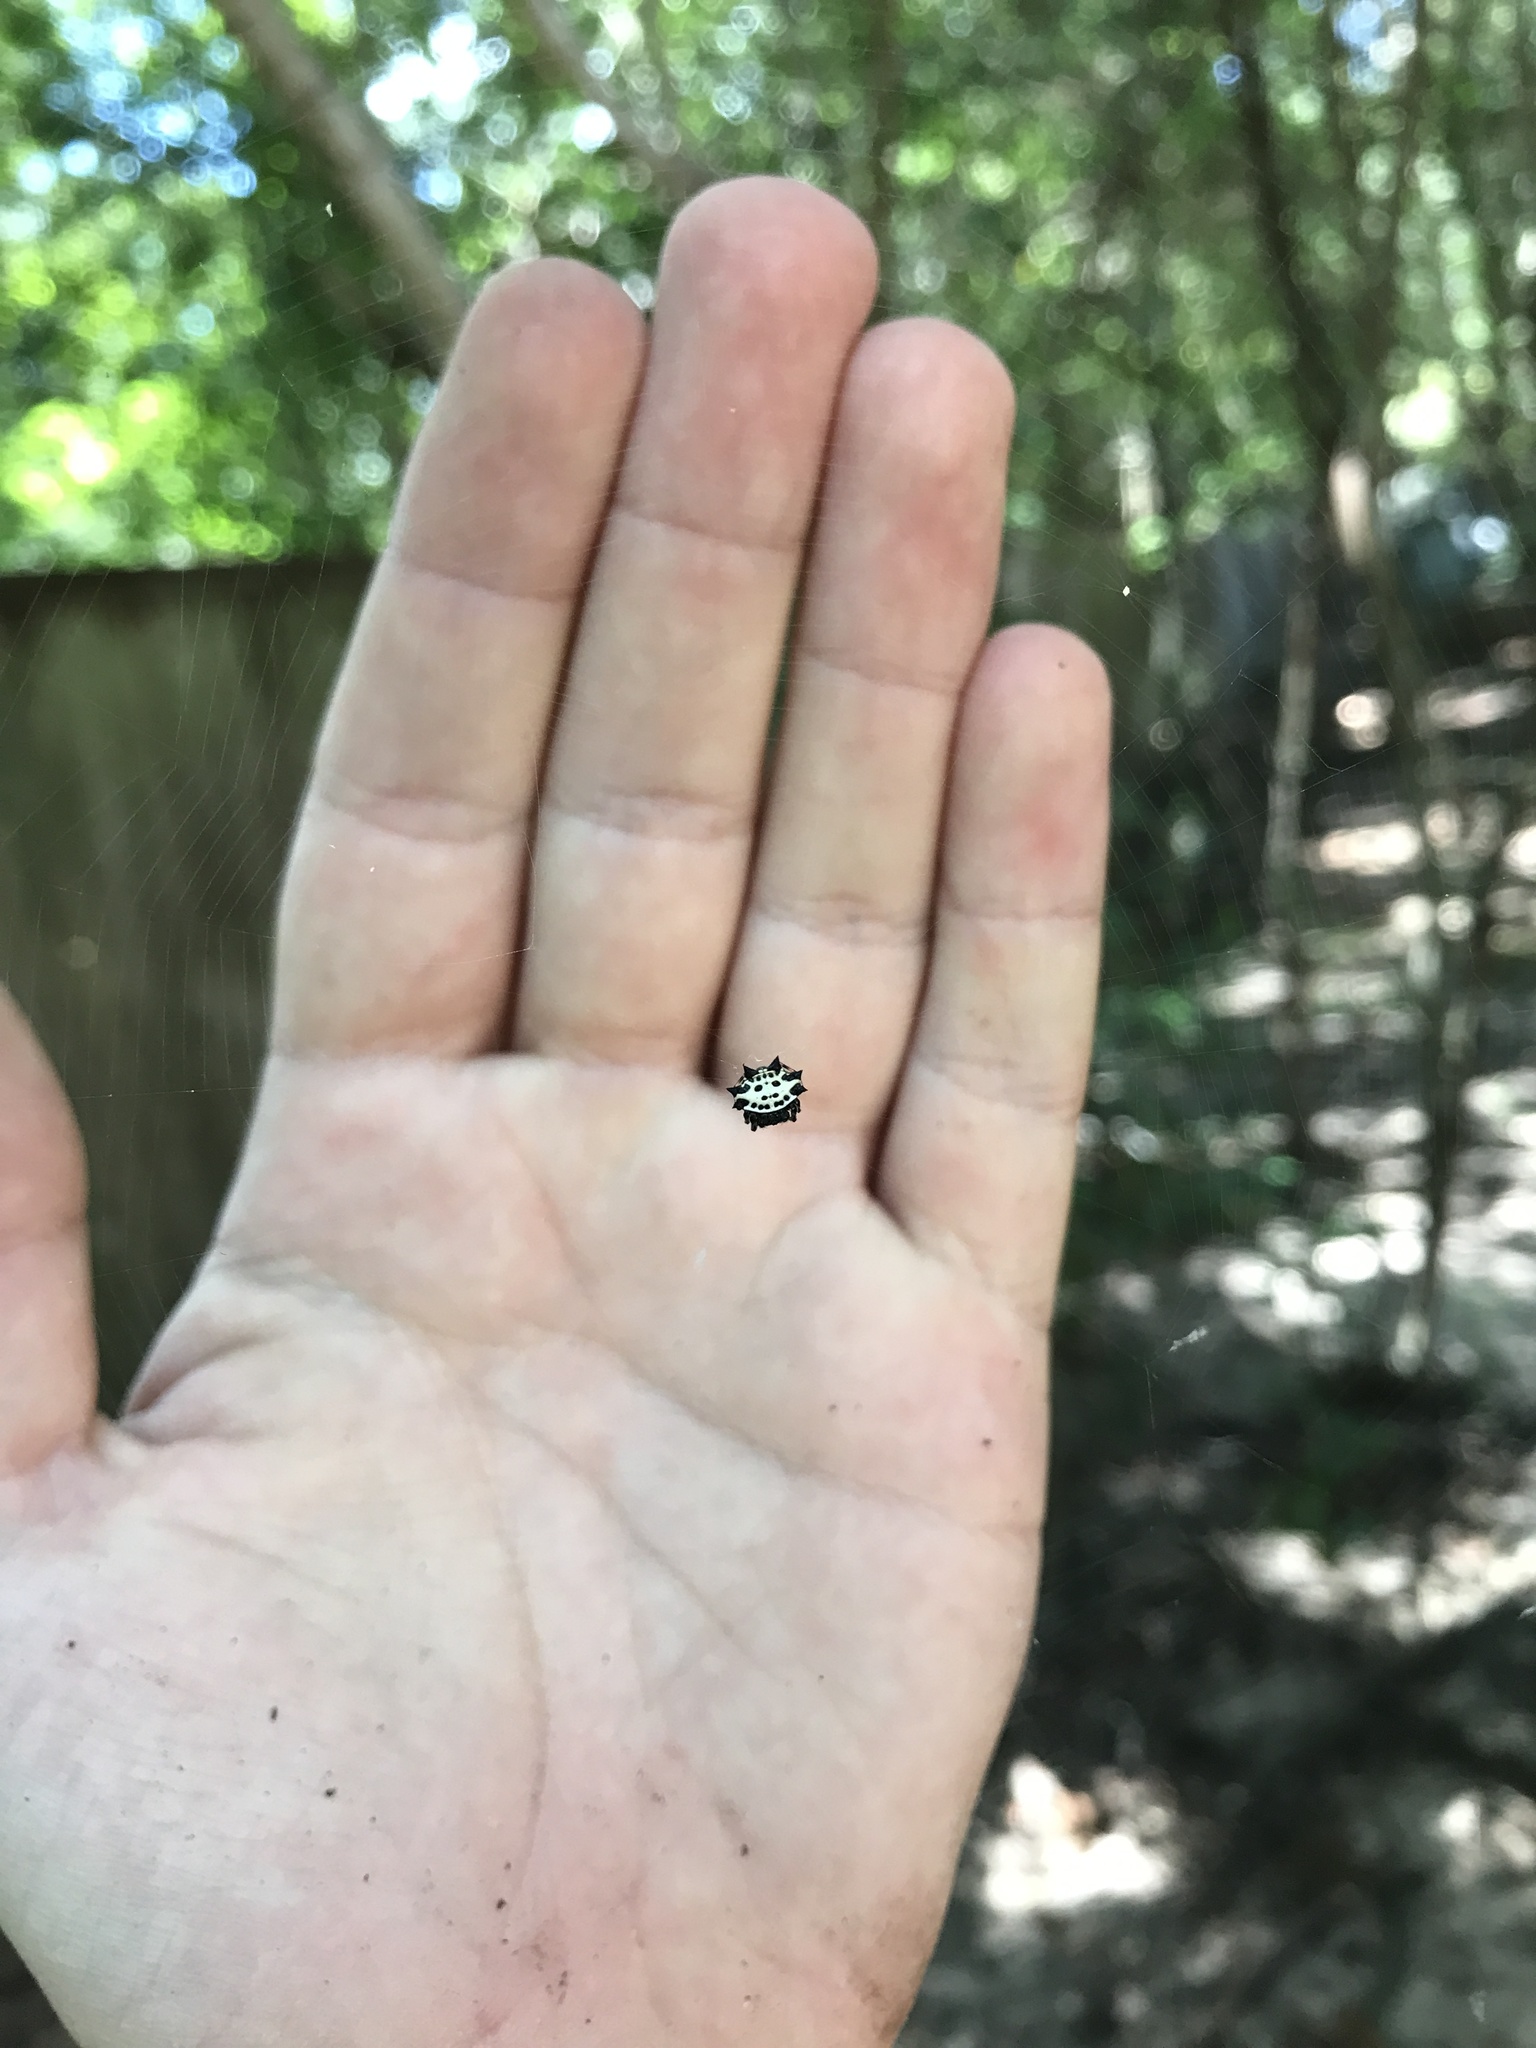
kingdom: Animalia
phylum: Arthropoda
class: Arachnida
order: Araneae
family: Araneidae
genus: Gasteracantha
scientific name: Gasteracantha cancriformis
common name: Orb weavers
